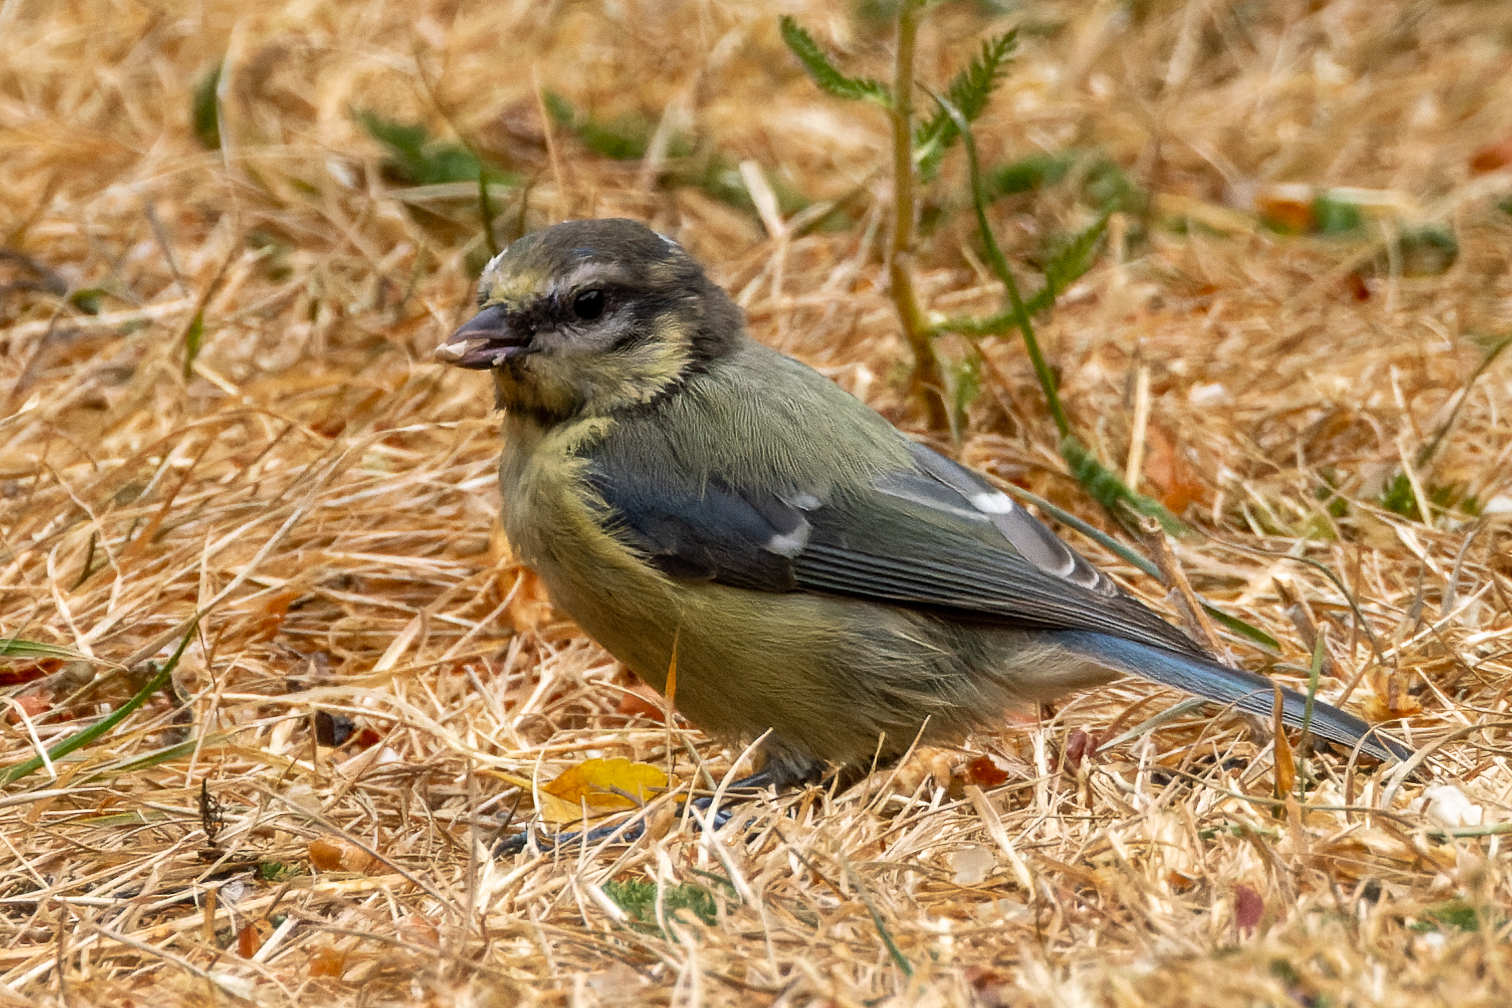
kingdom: Animalia
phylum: Chordata
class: Aves
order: Passeriformes
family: Paridae
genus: Cyanistes
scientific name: Cyanistes caeruleus
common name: Eurasian blue tit
